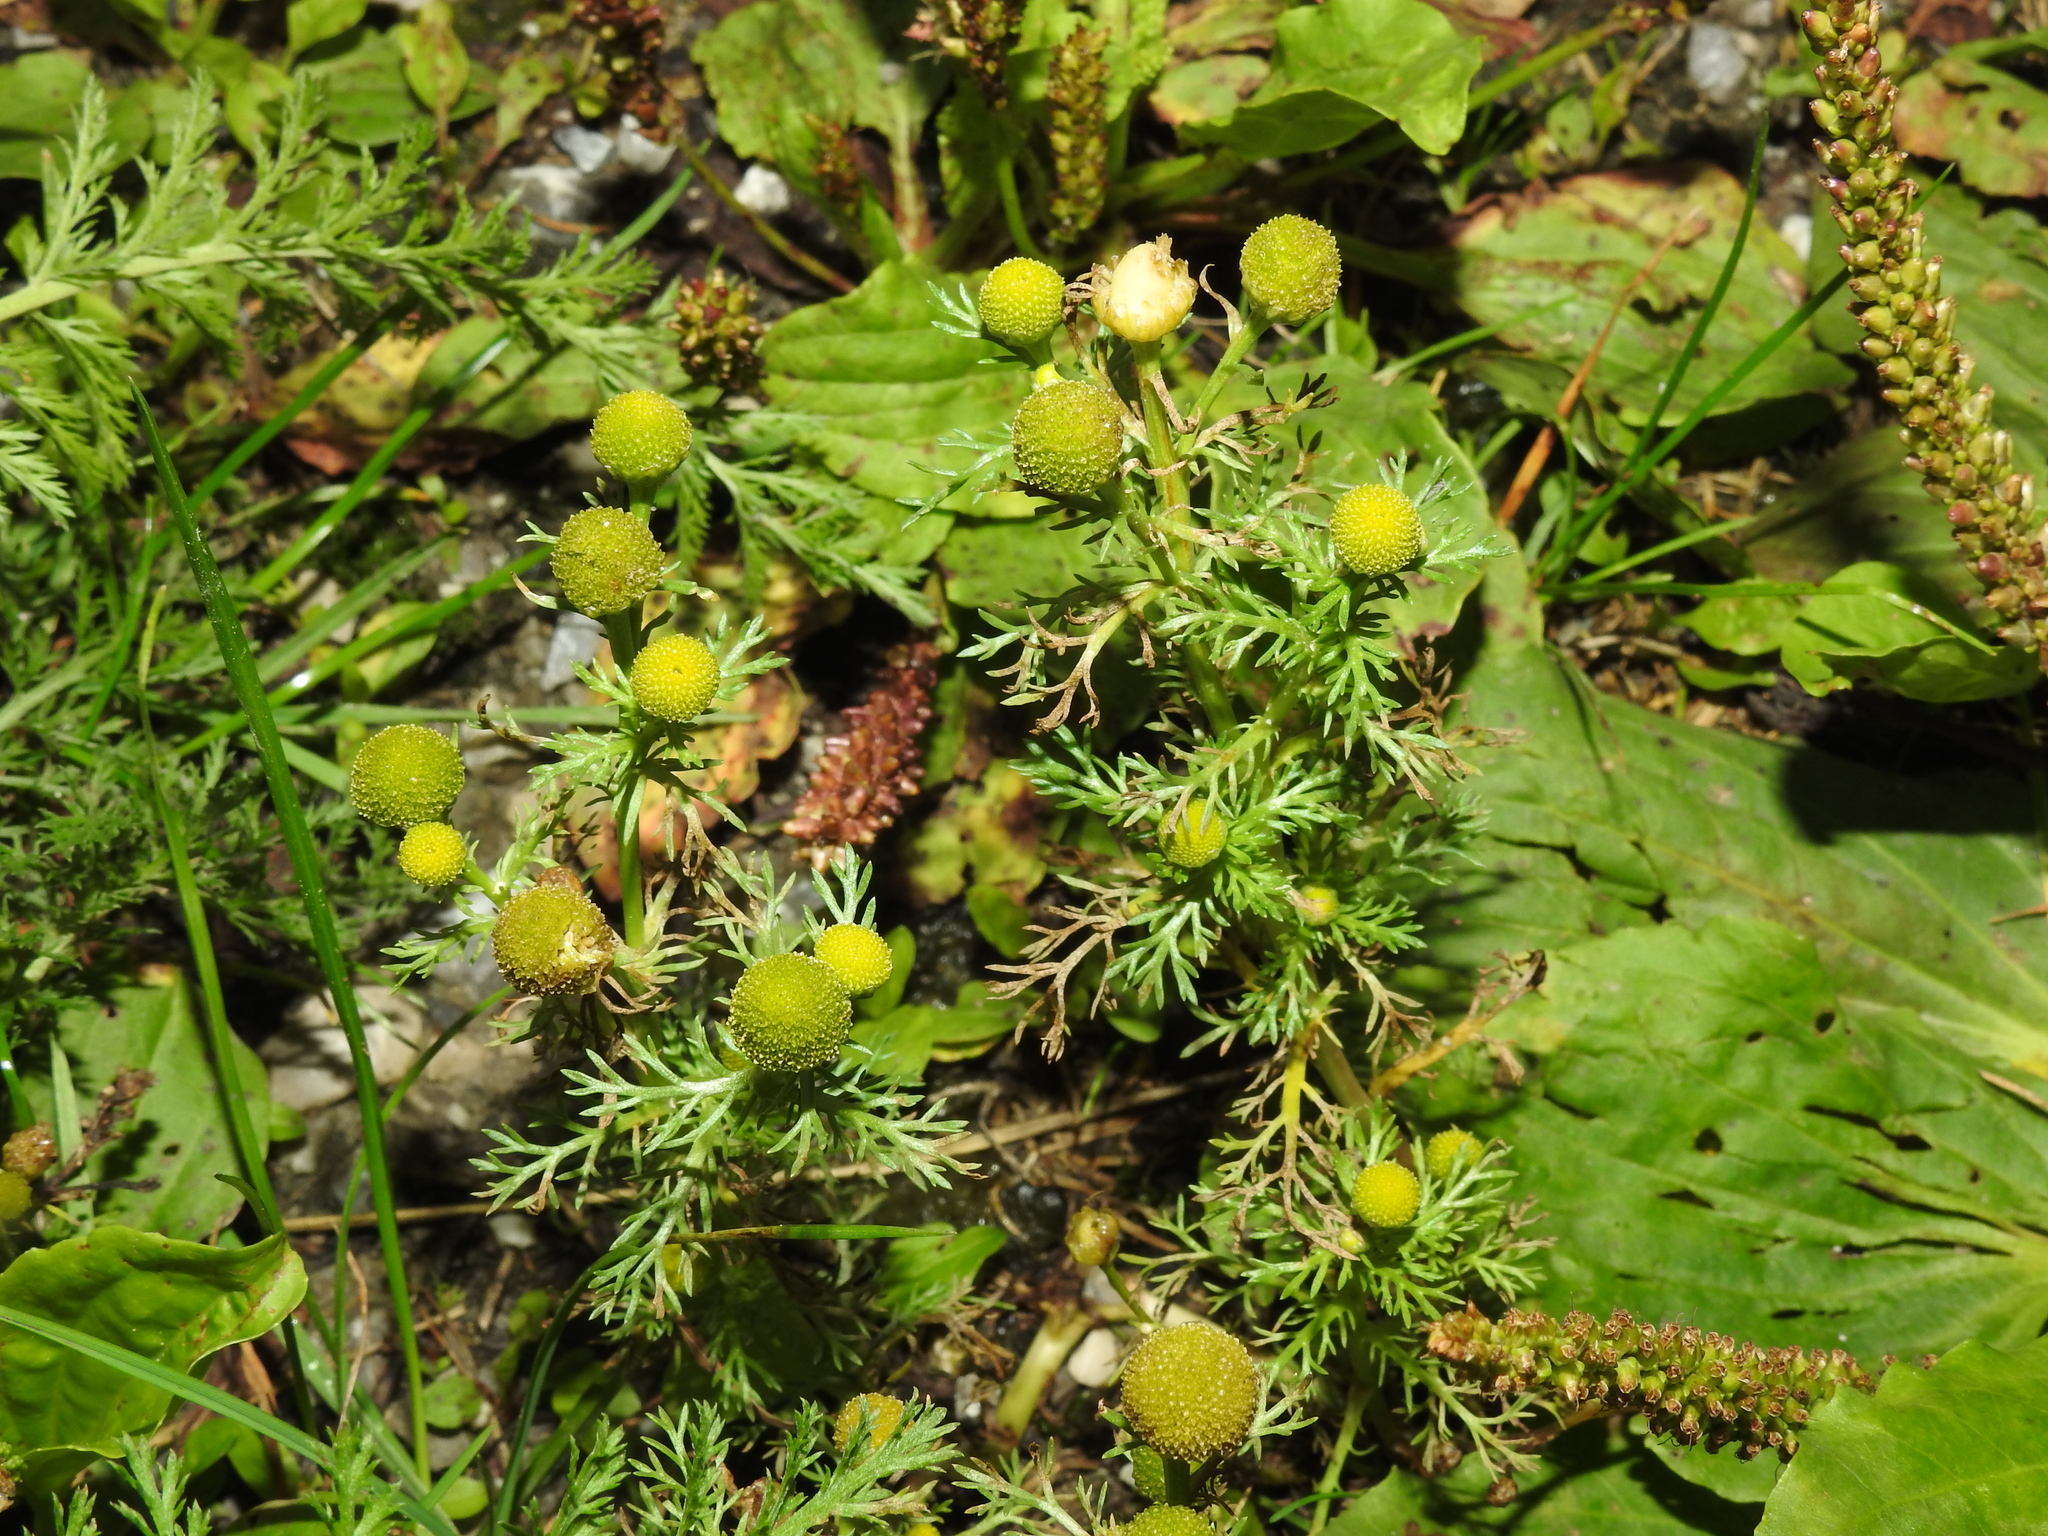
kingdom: Plantae
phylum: Tracheophyta
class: Magnoliopsida
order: Asterales
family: Asteraceae
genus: Matricaria
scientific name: Matricaria discoidea
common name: Disc mayweed
